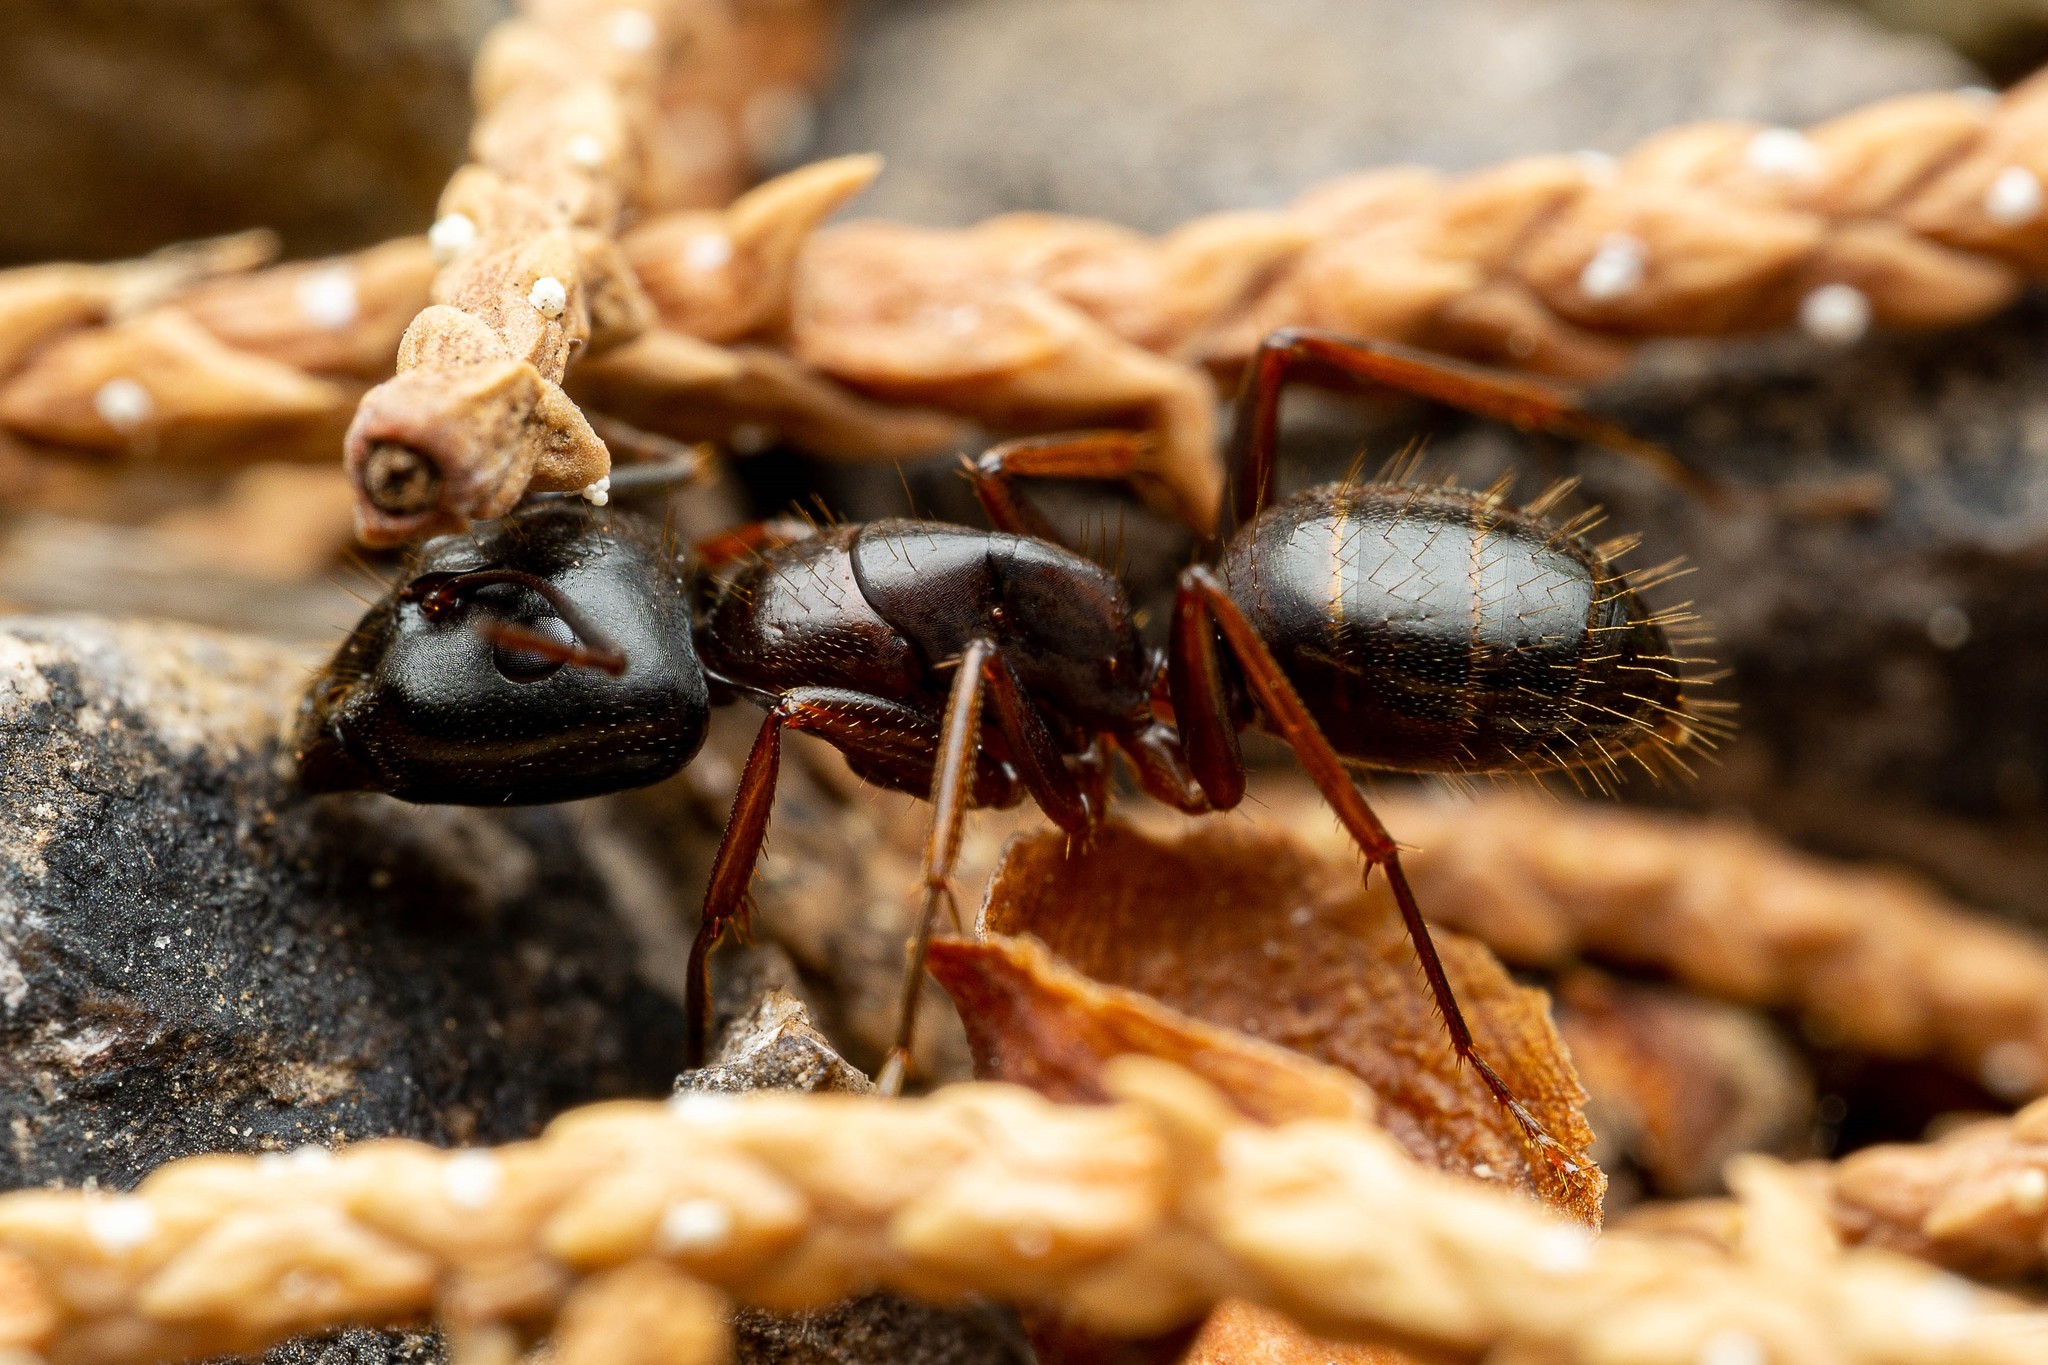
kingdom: Animalia
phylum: Arthropoda
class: Insecta
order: Hymenoptera
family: Formicidae
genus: Camponotus
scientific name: Camponotus sansabeanus
